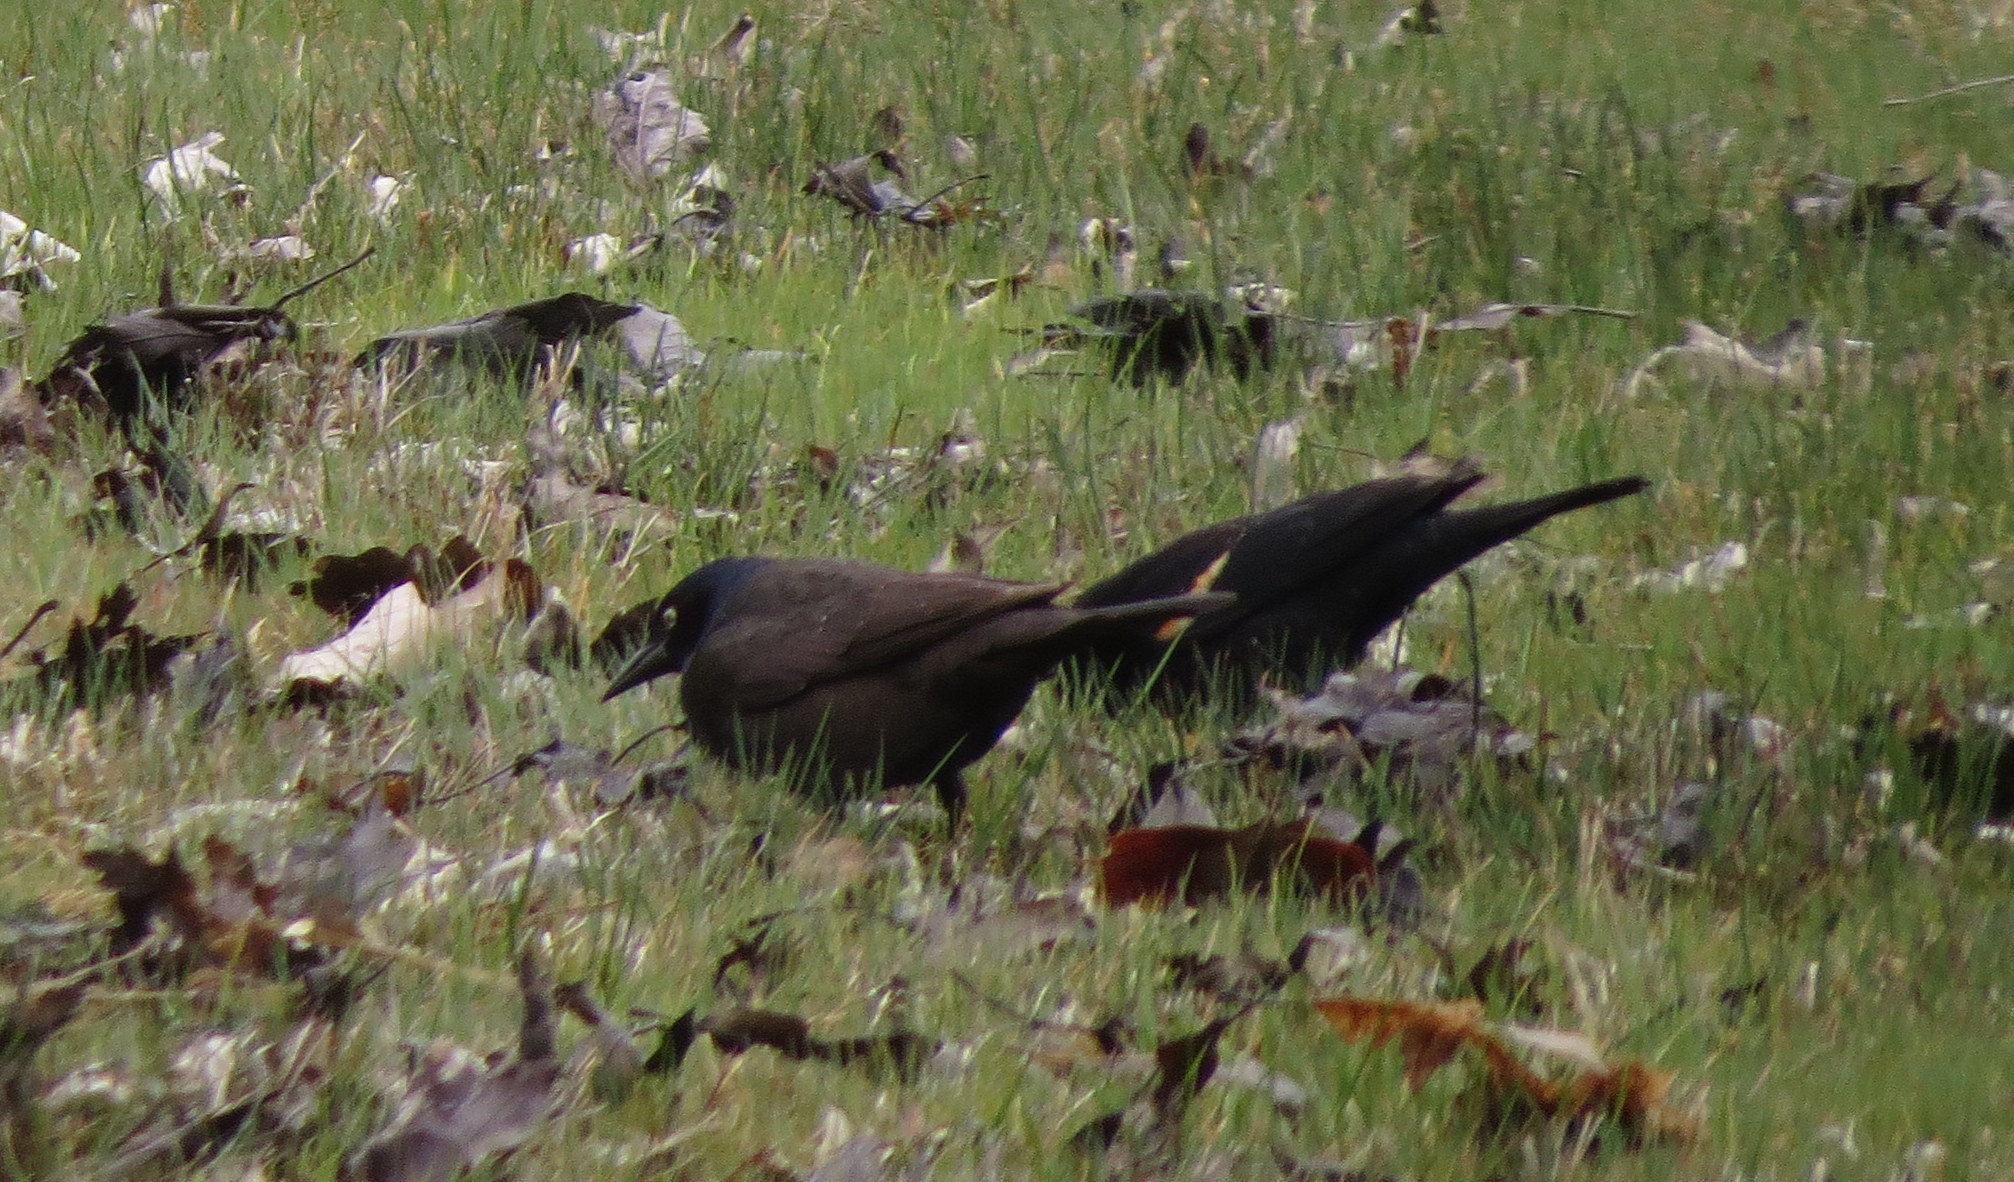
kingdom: Animalia
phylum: Chordata
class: Aves
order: Passeriformes
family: Icteridae
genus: Quiscalus
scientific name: Quiscalus quiscula
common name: Common grackle
